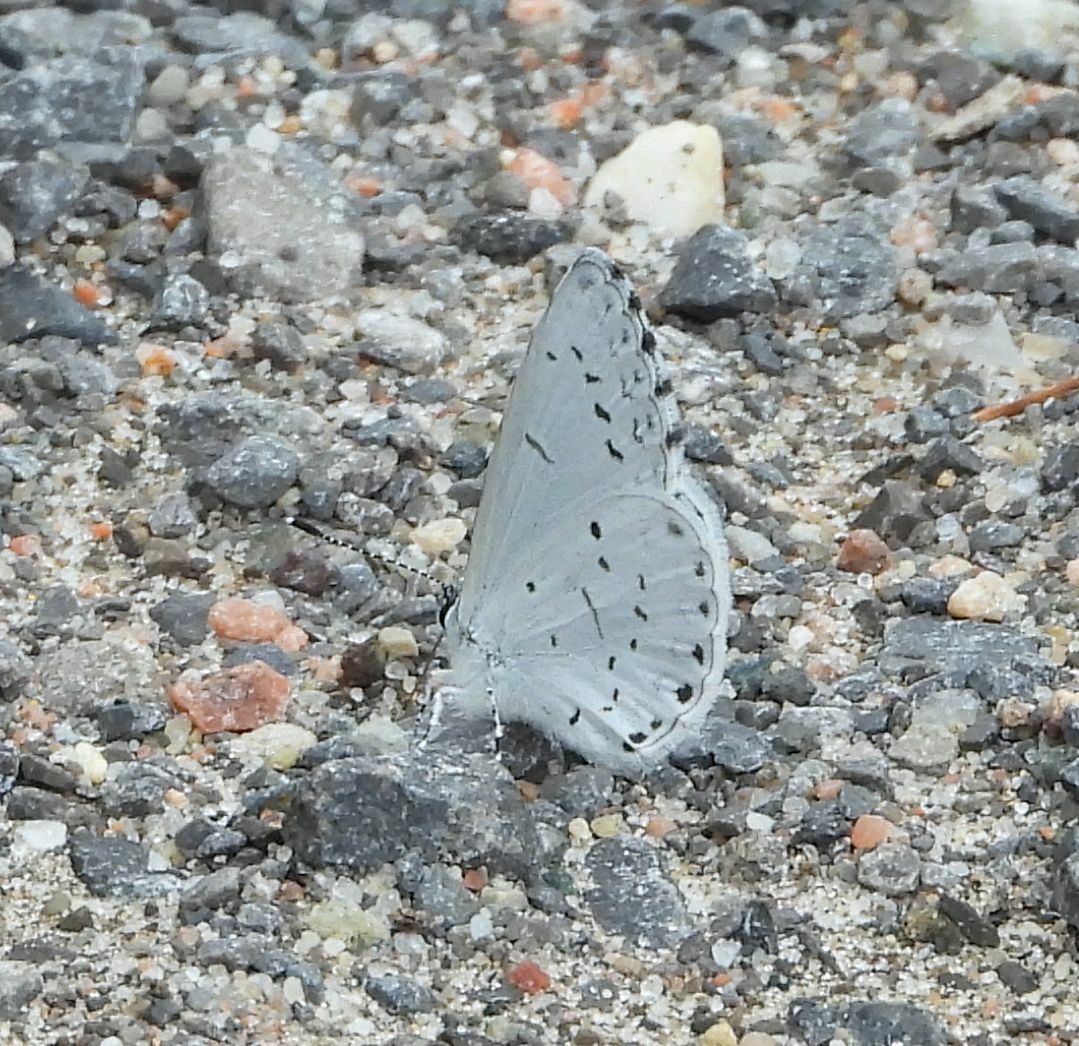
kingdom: Animalia
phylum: Arthropoda
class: Insecta
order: Lepidoptera
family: Lycaenidae
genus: Celastrina
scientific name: Celastrina lucia
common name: Lucia azure
